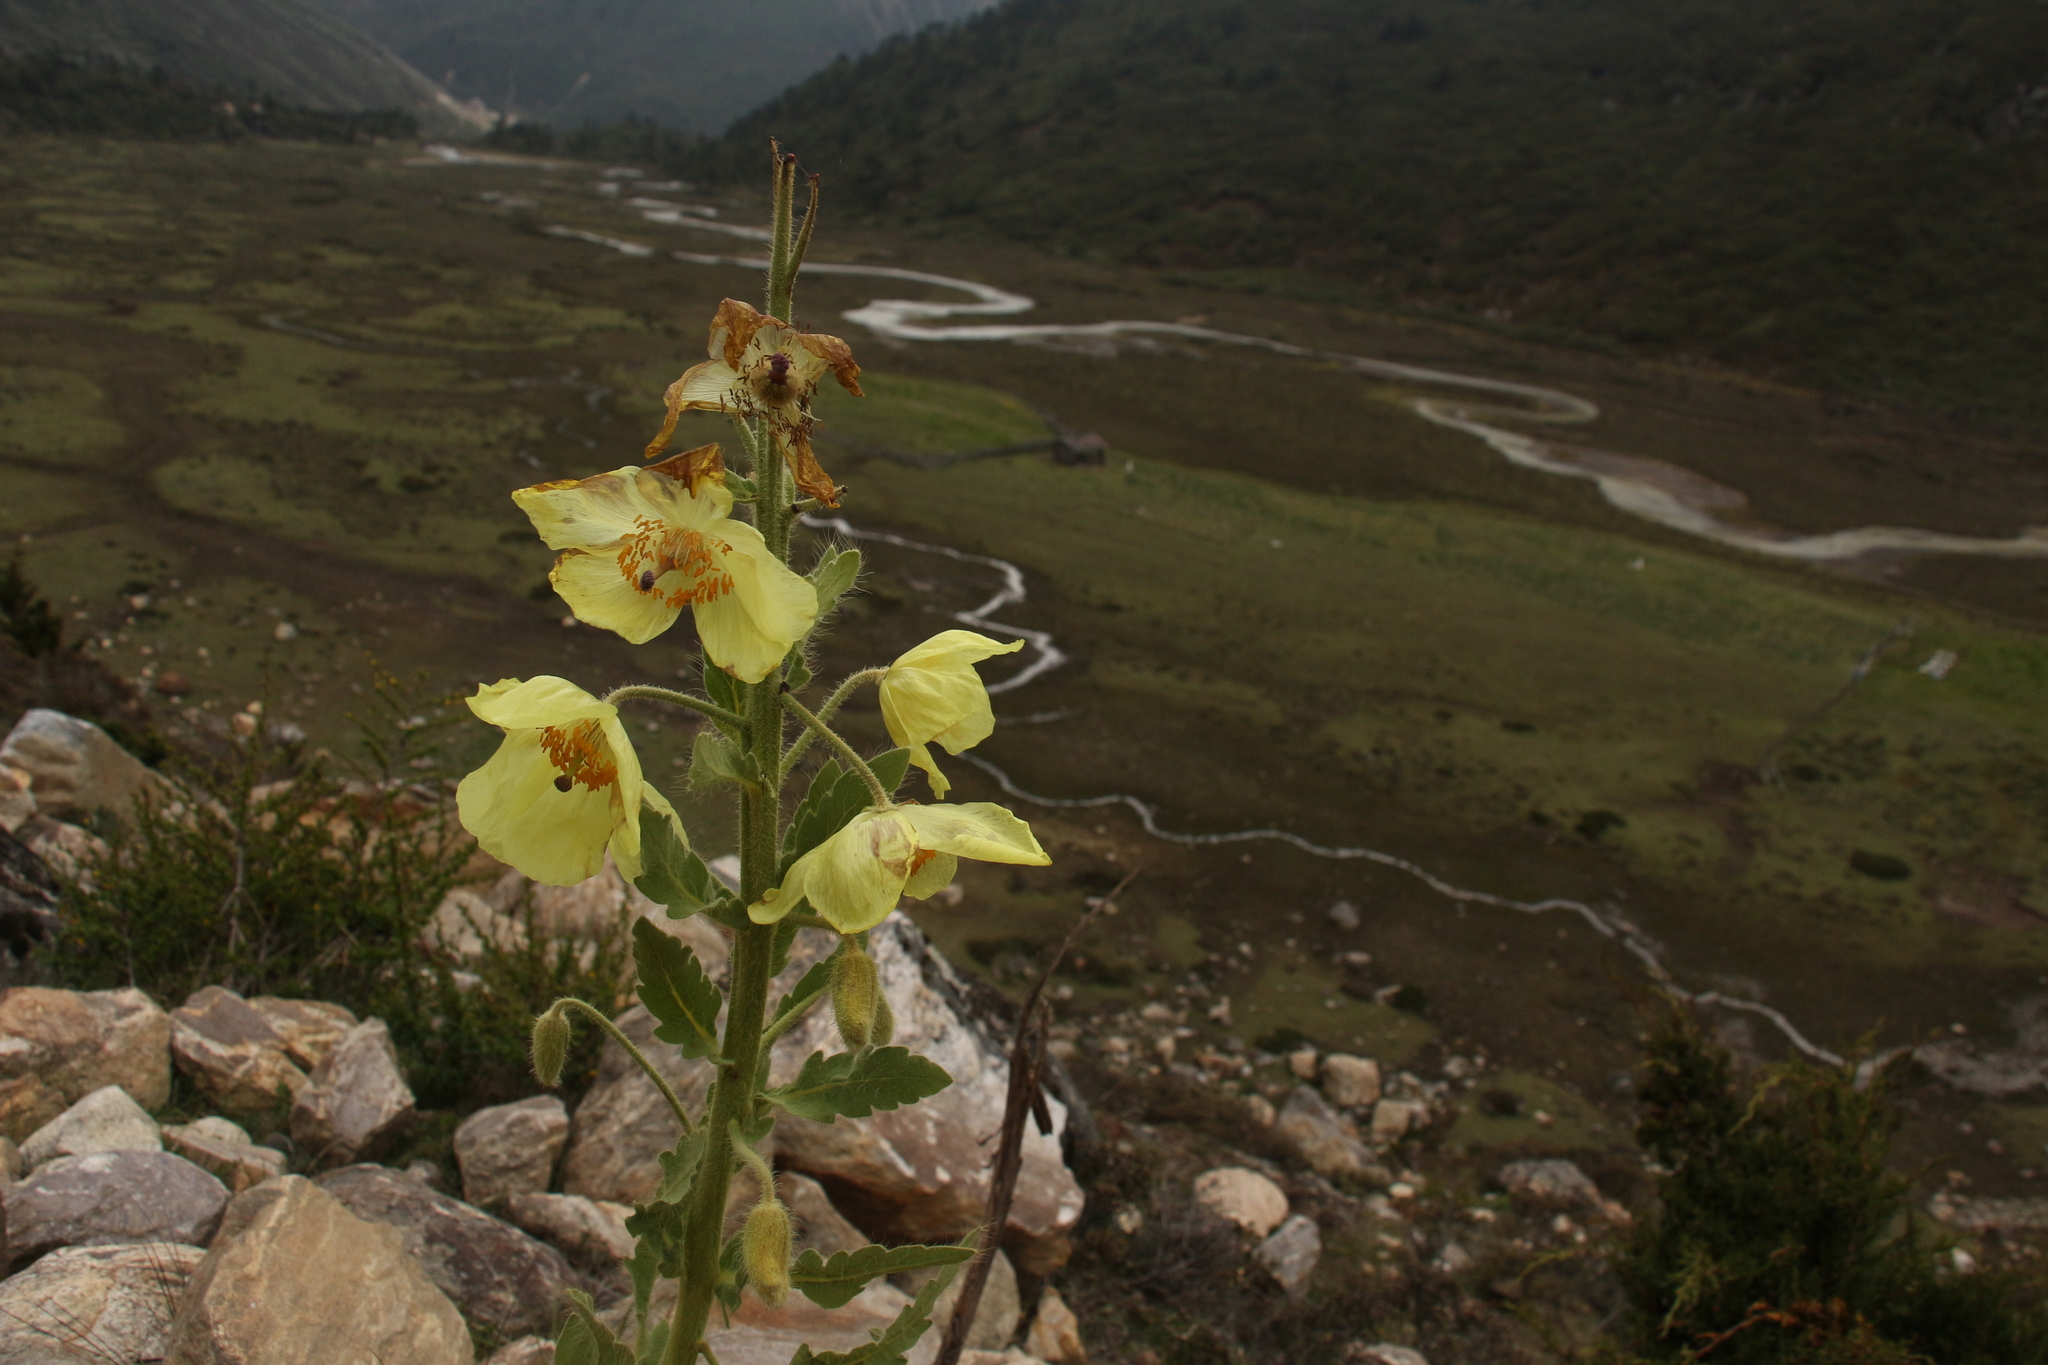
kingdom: Plantae
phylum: Tracheophyta
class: Magnoliopsida
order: Ranunculales
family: Papaveraceae
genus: Meconopsis
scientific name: Meconopsis paniculata
